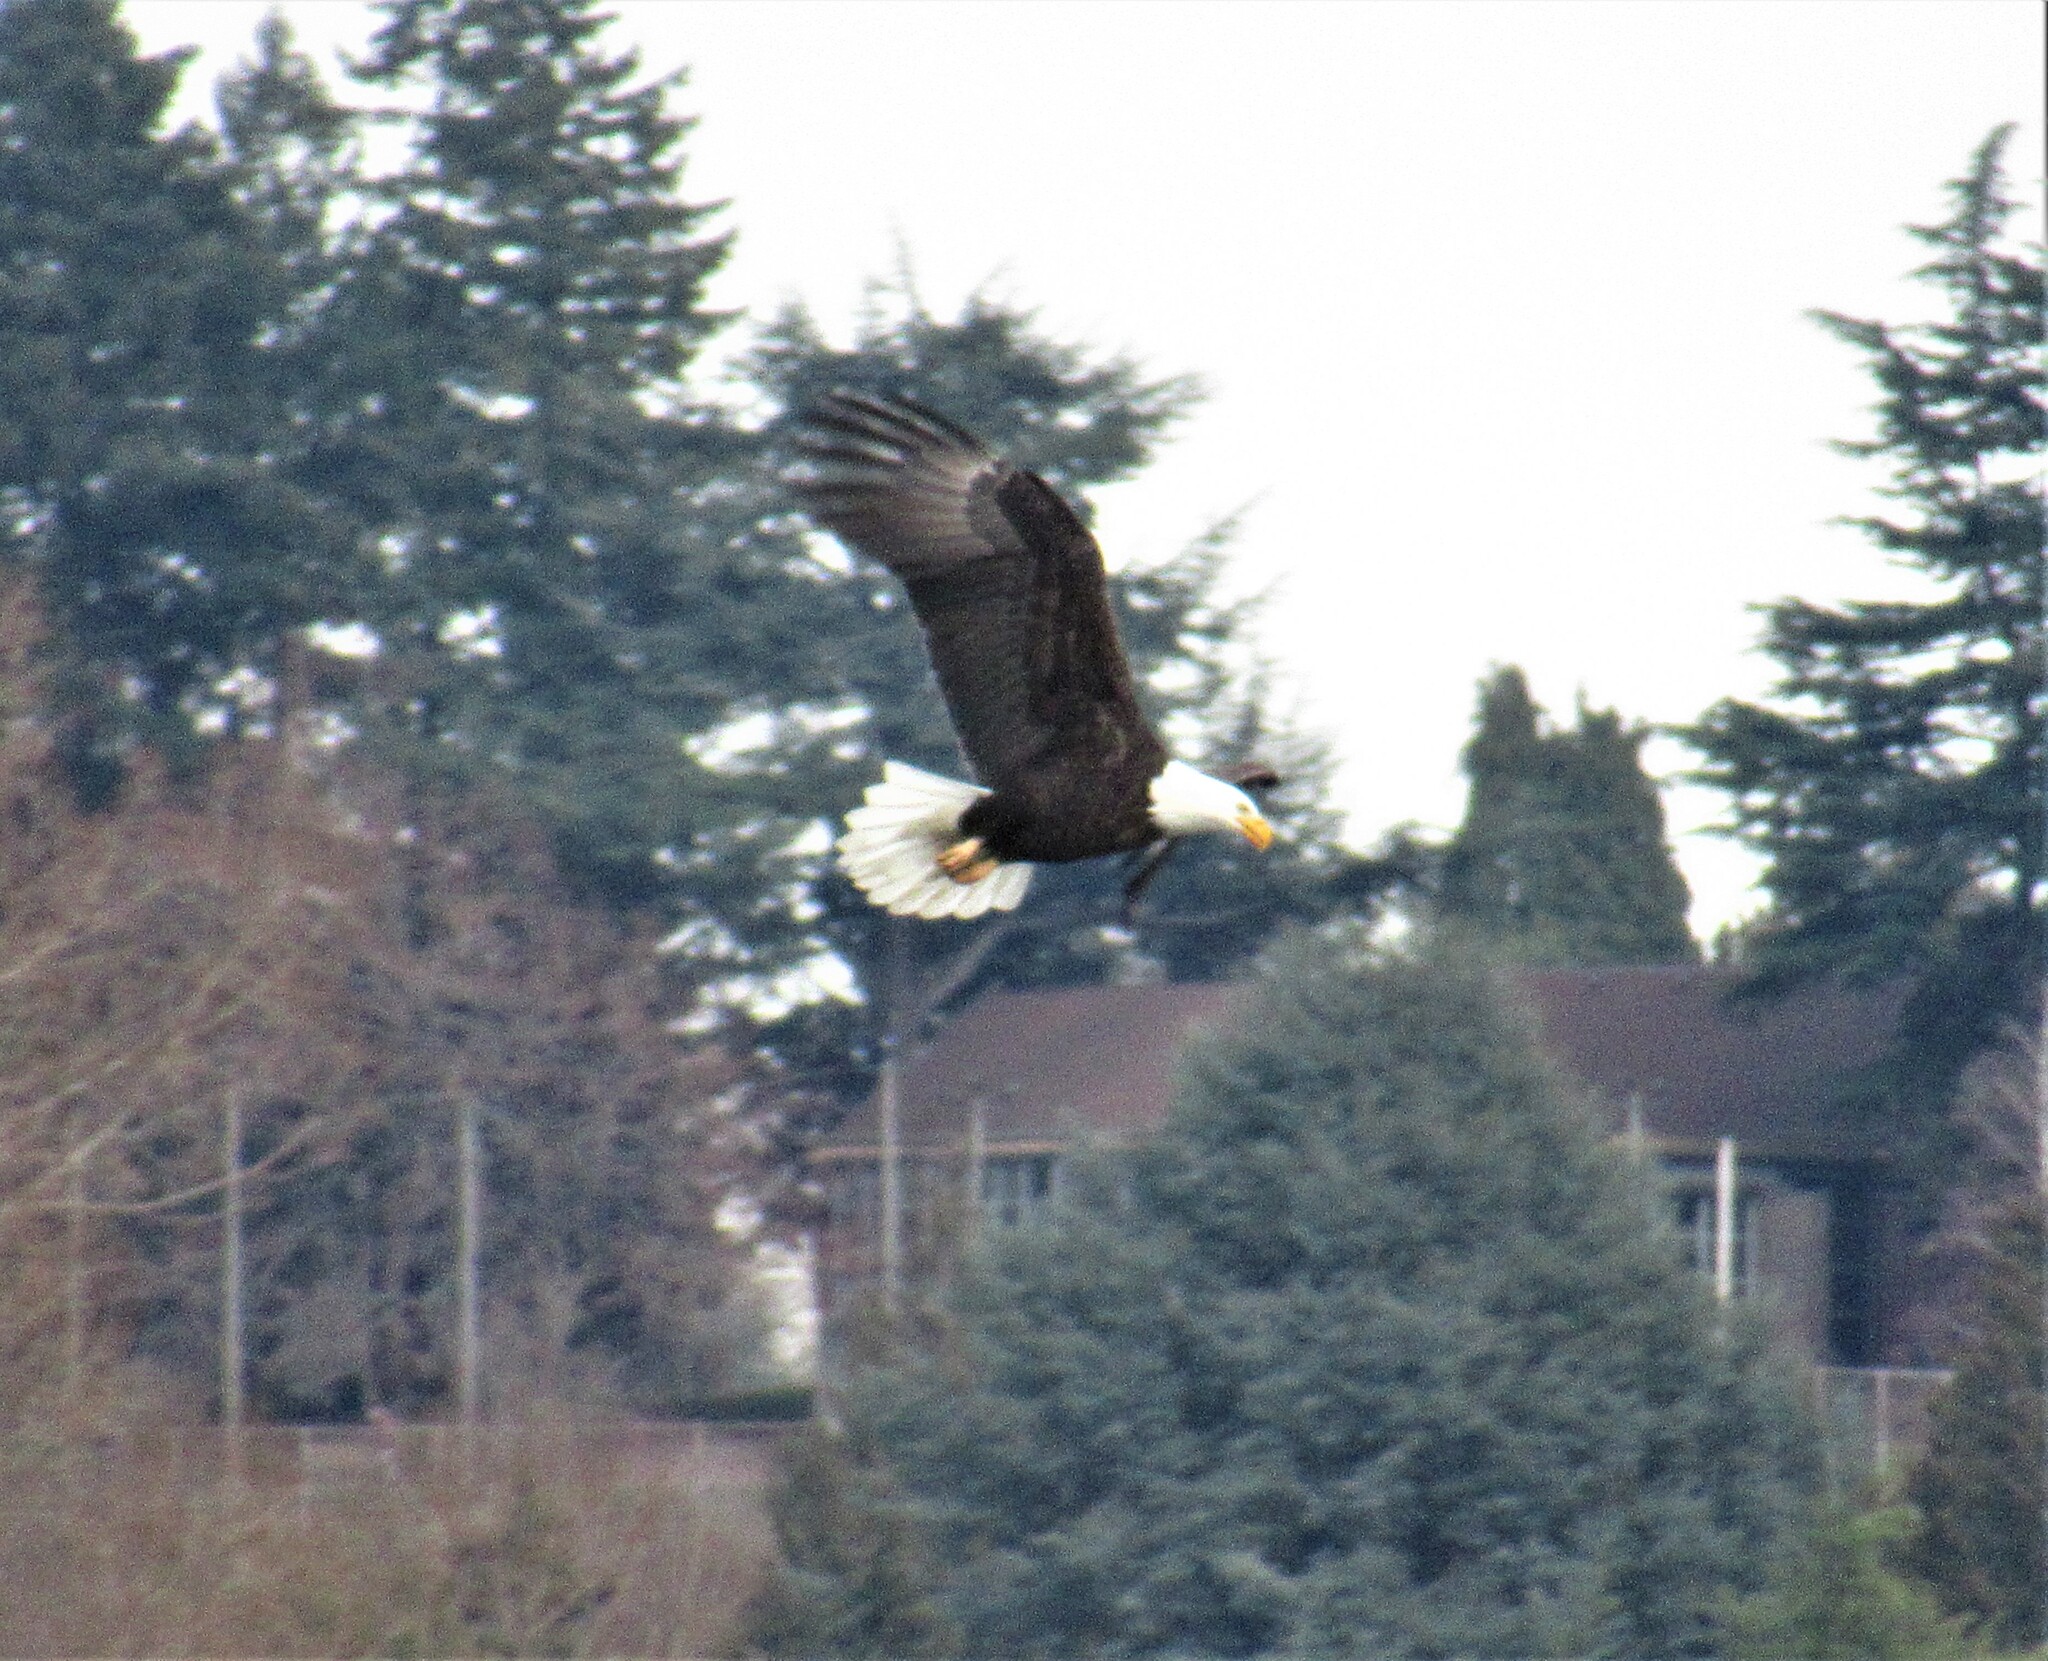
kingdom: Animalia
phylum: Chordata
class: Aves
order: Accipitriformes
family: Accipitridae
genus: Haliaeetus
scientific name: Haliaeetus leucocephalus
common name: Bald eagle
